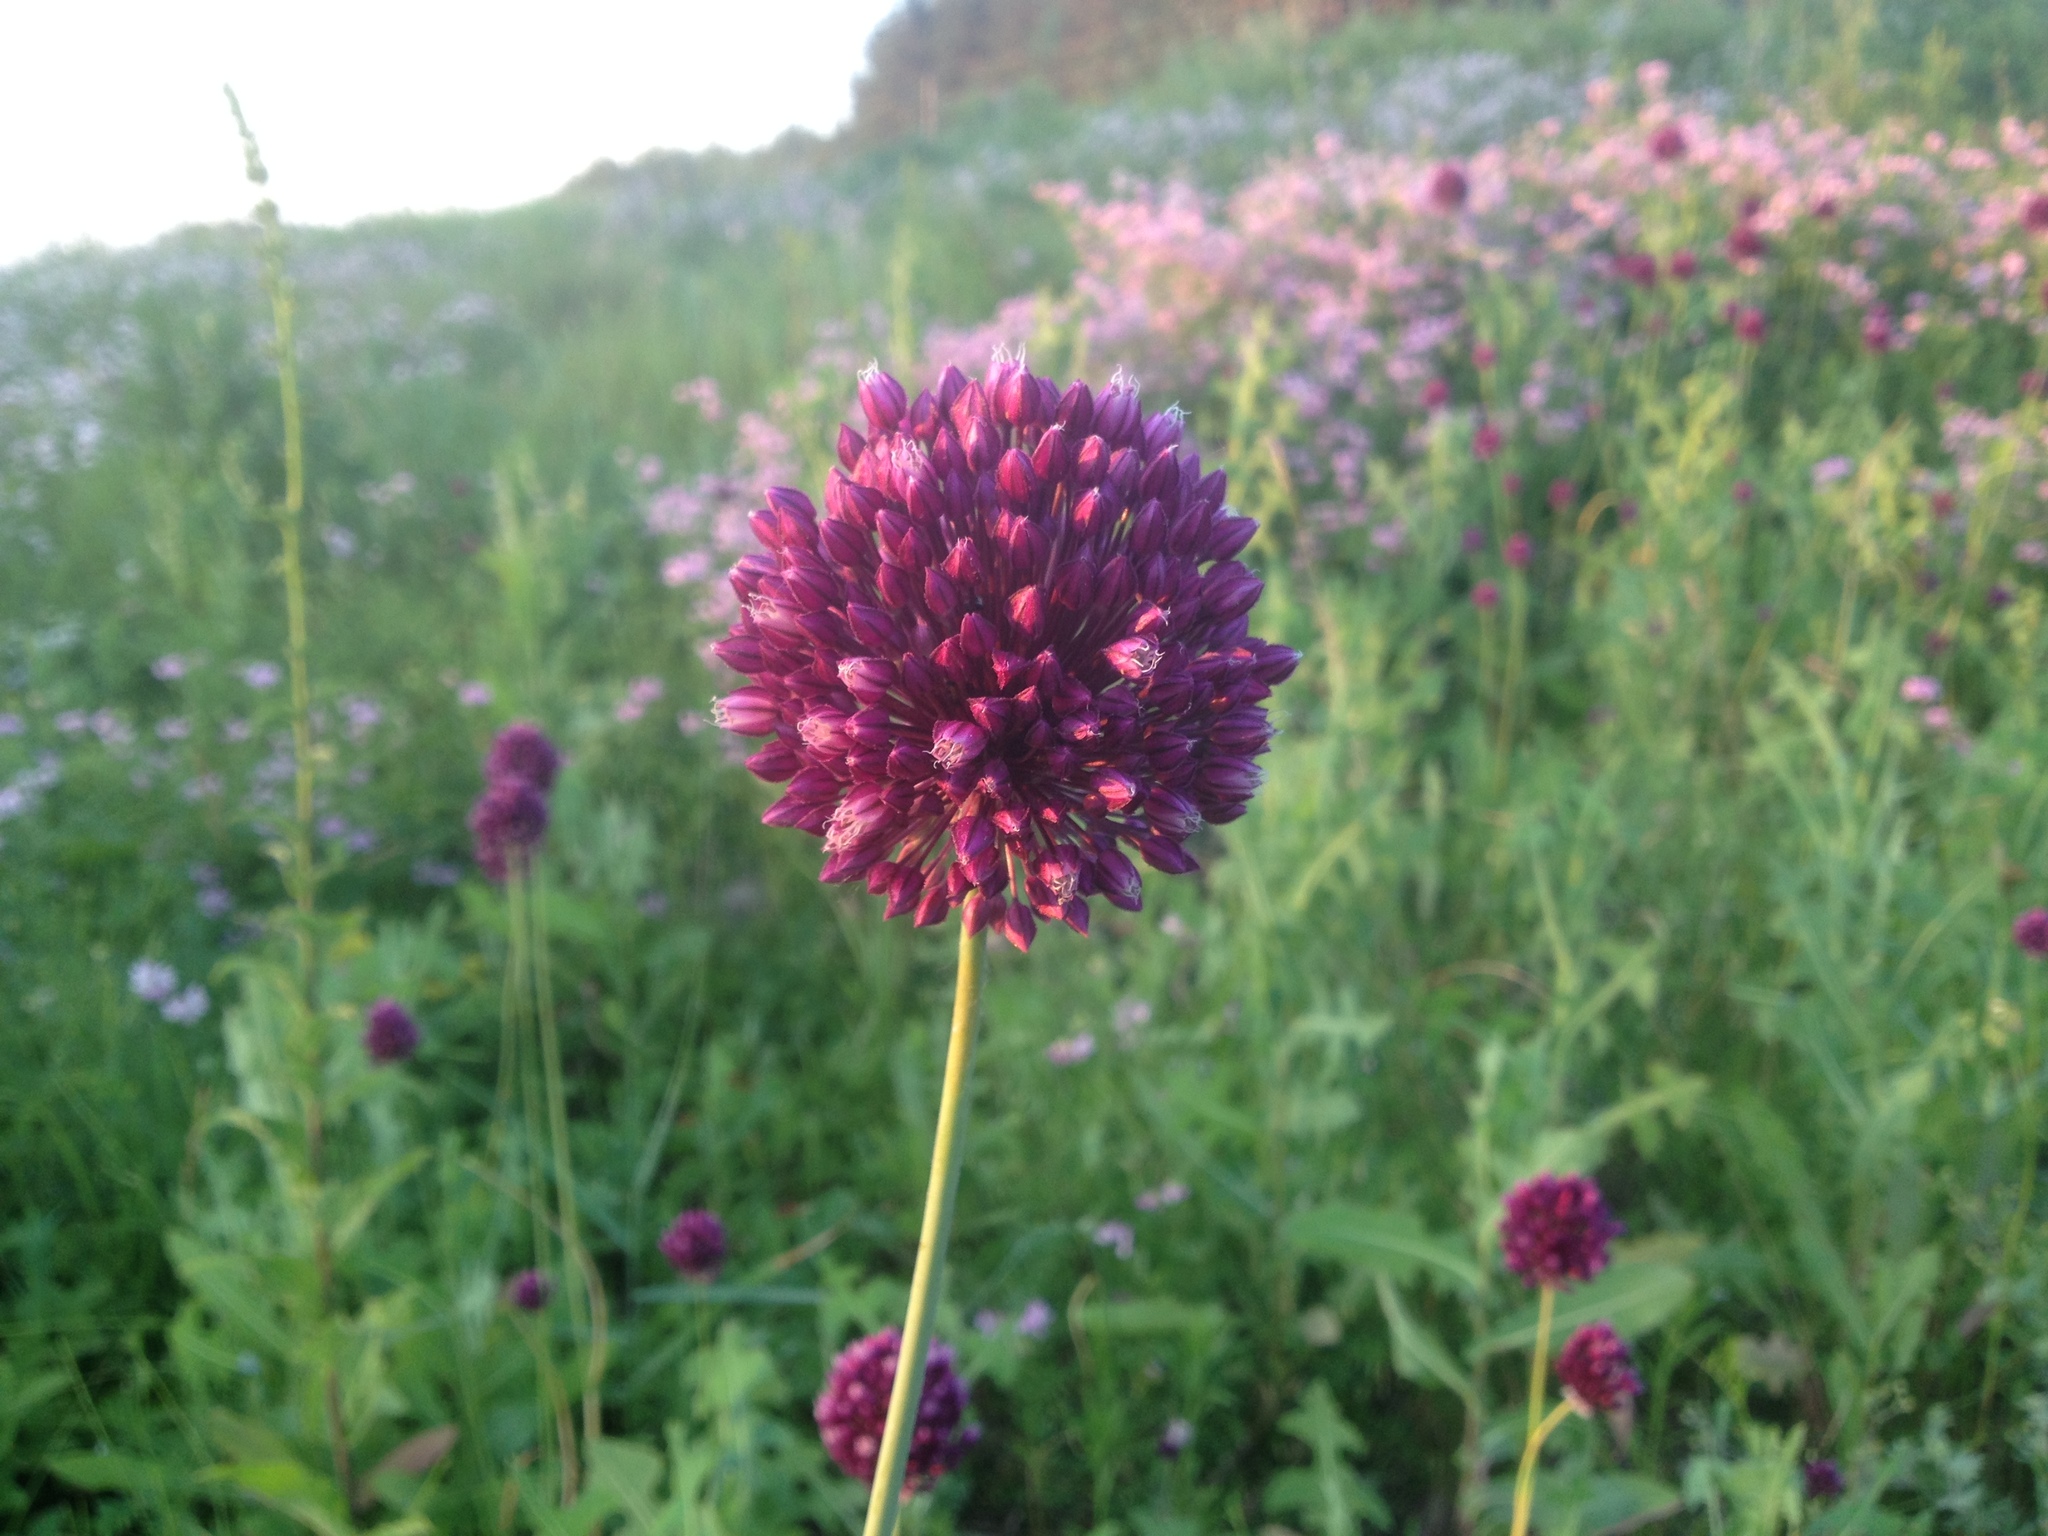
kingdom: Plantae
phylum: Tracheophyta
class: Liliopsida
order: Asparagales
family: Amaryllidaceae
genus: Allium
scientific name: Allium rotundum
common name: Sand leek
